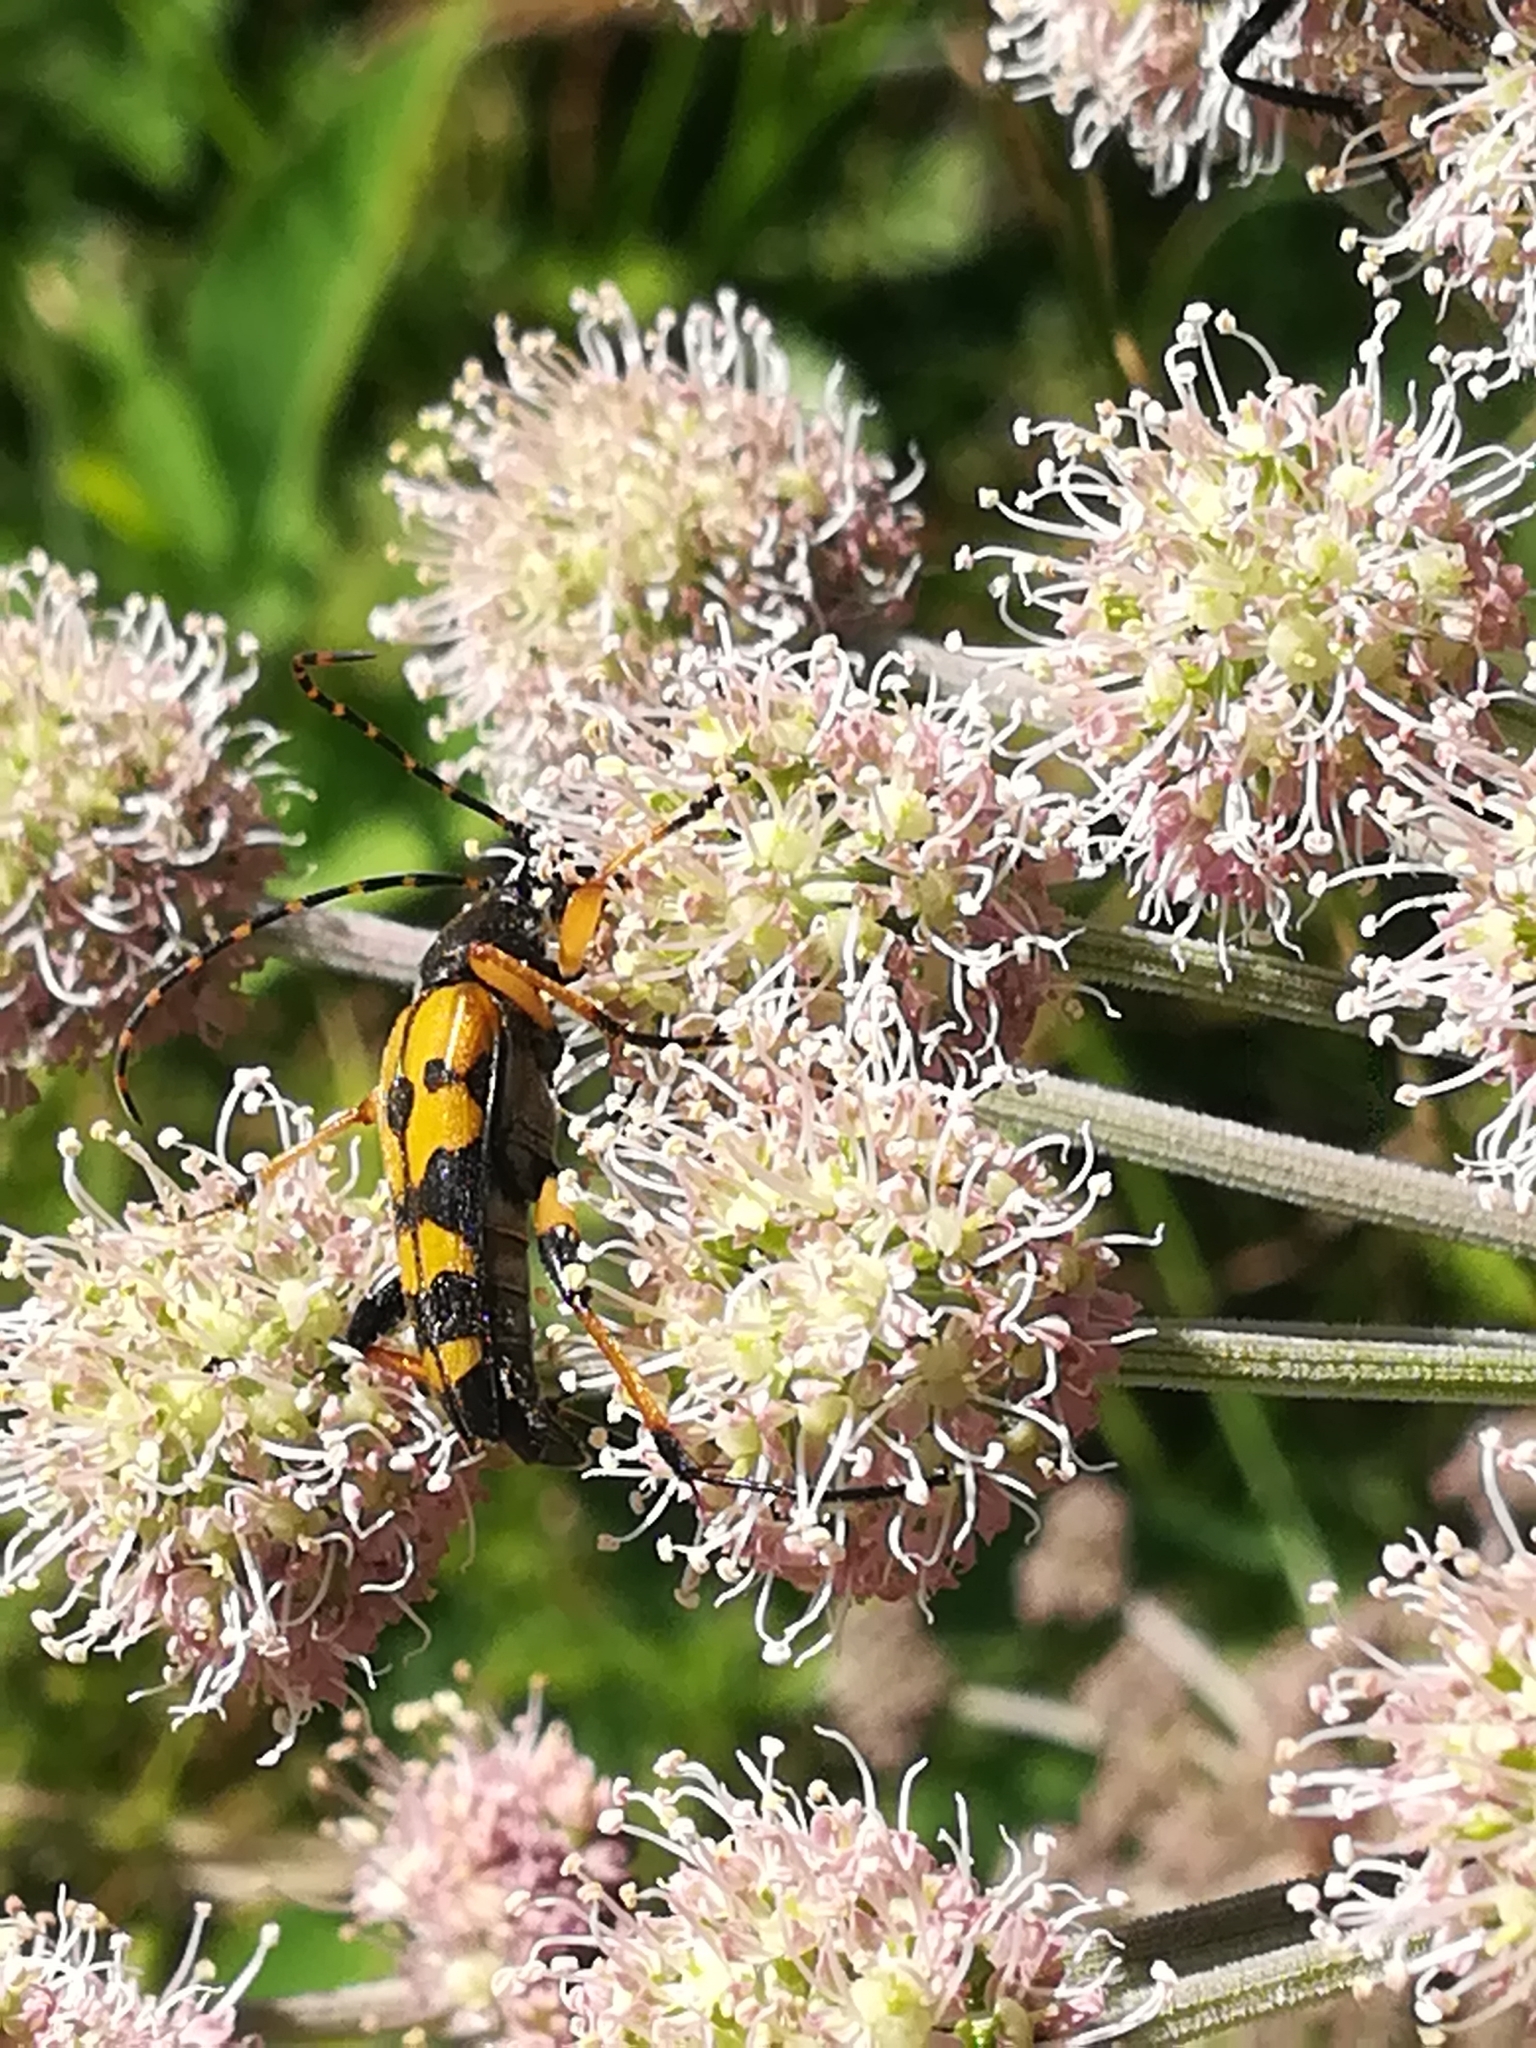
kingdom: Animalia
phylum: Arthropoda
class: Insecta
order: Coleoptera
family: Cerambycidae
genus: Rutpela
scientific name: Rutpela maculata
